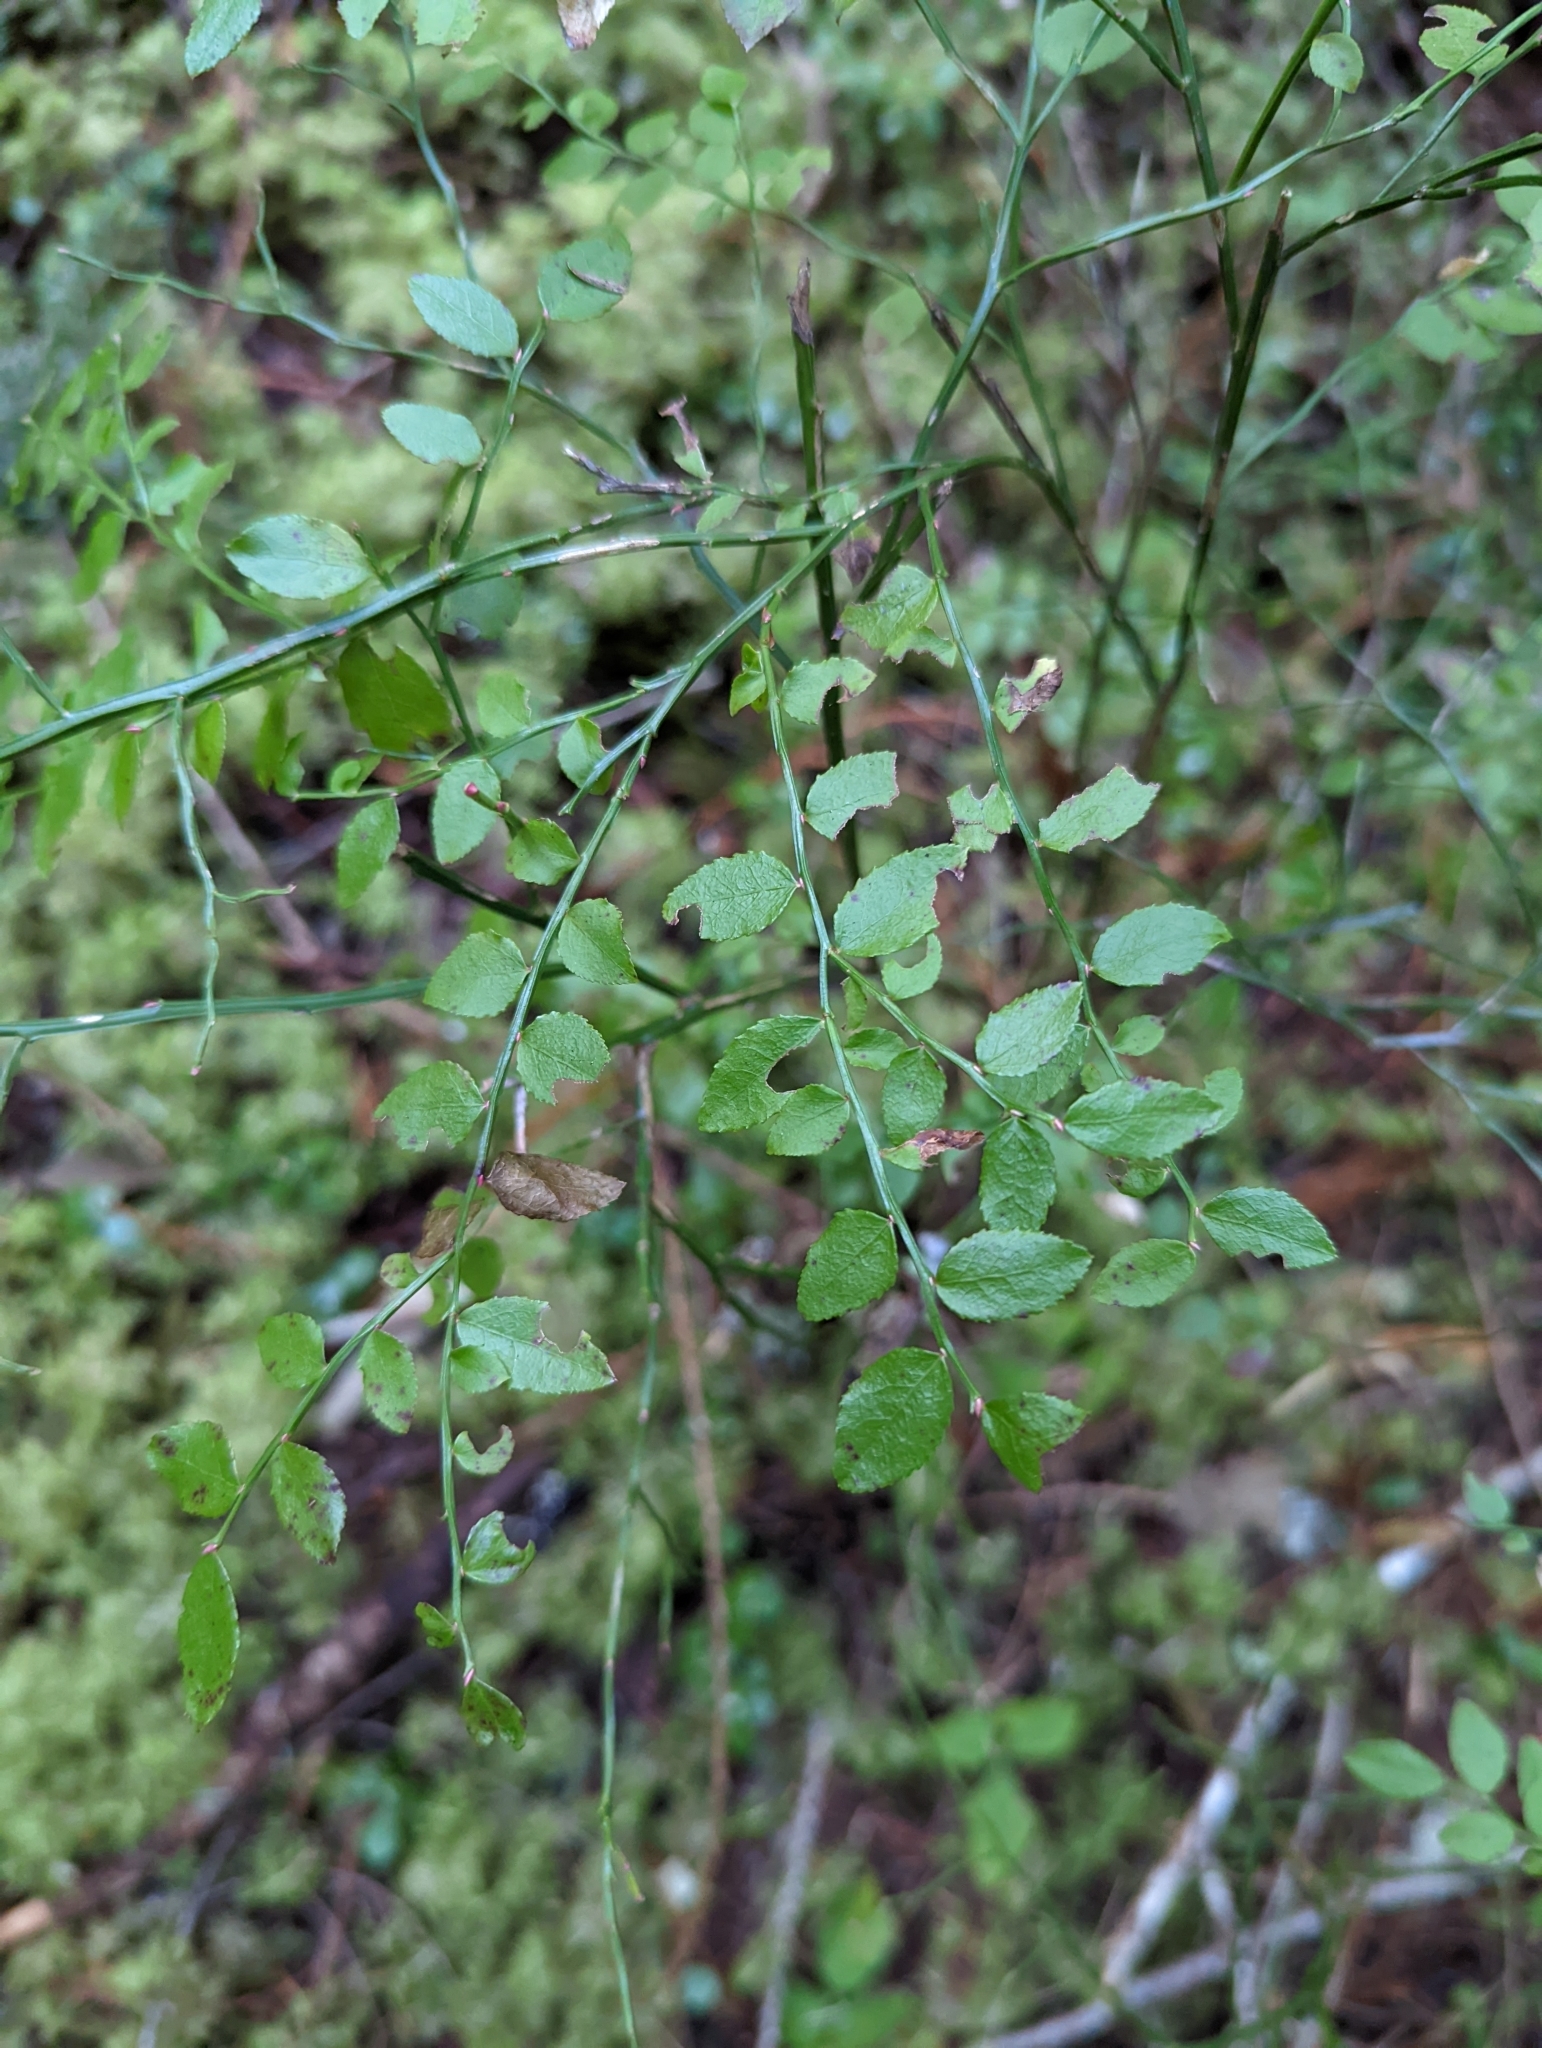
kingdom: Plantae
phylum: Tracheophyta
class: Magnoliopsida
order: Ericales
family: Ericaceae
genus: Vaccinium
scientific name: Vaccinium parvifolium
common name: Red-huckleberry
